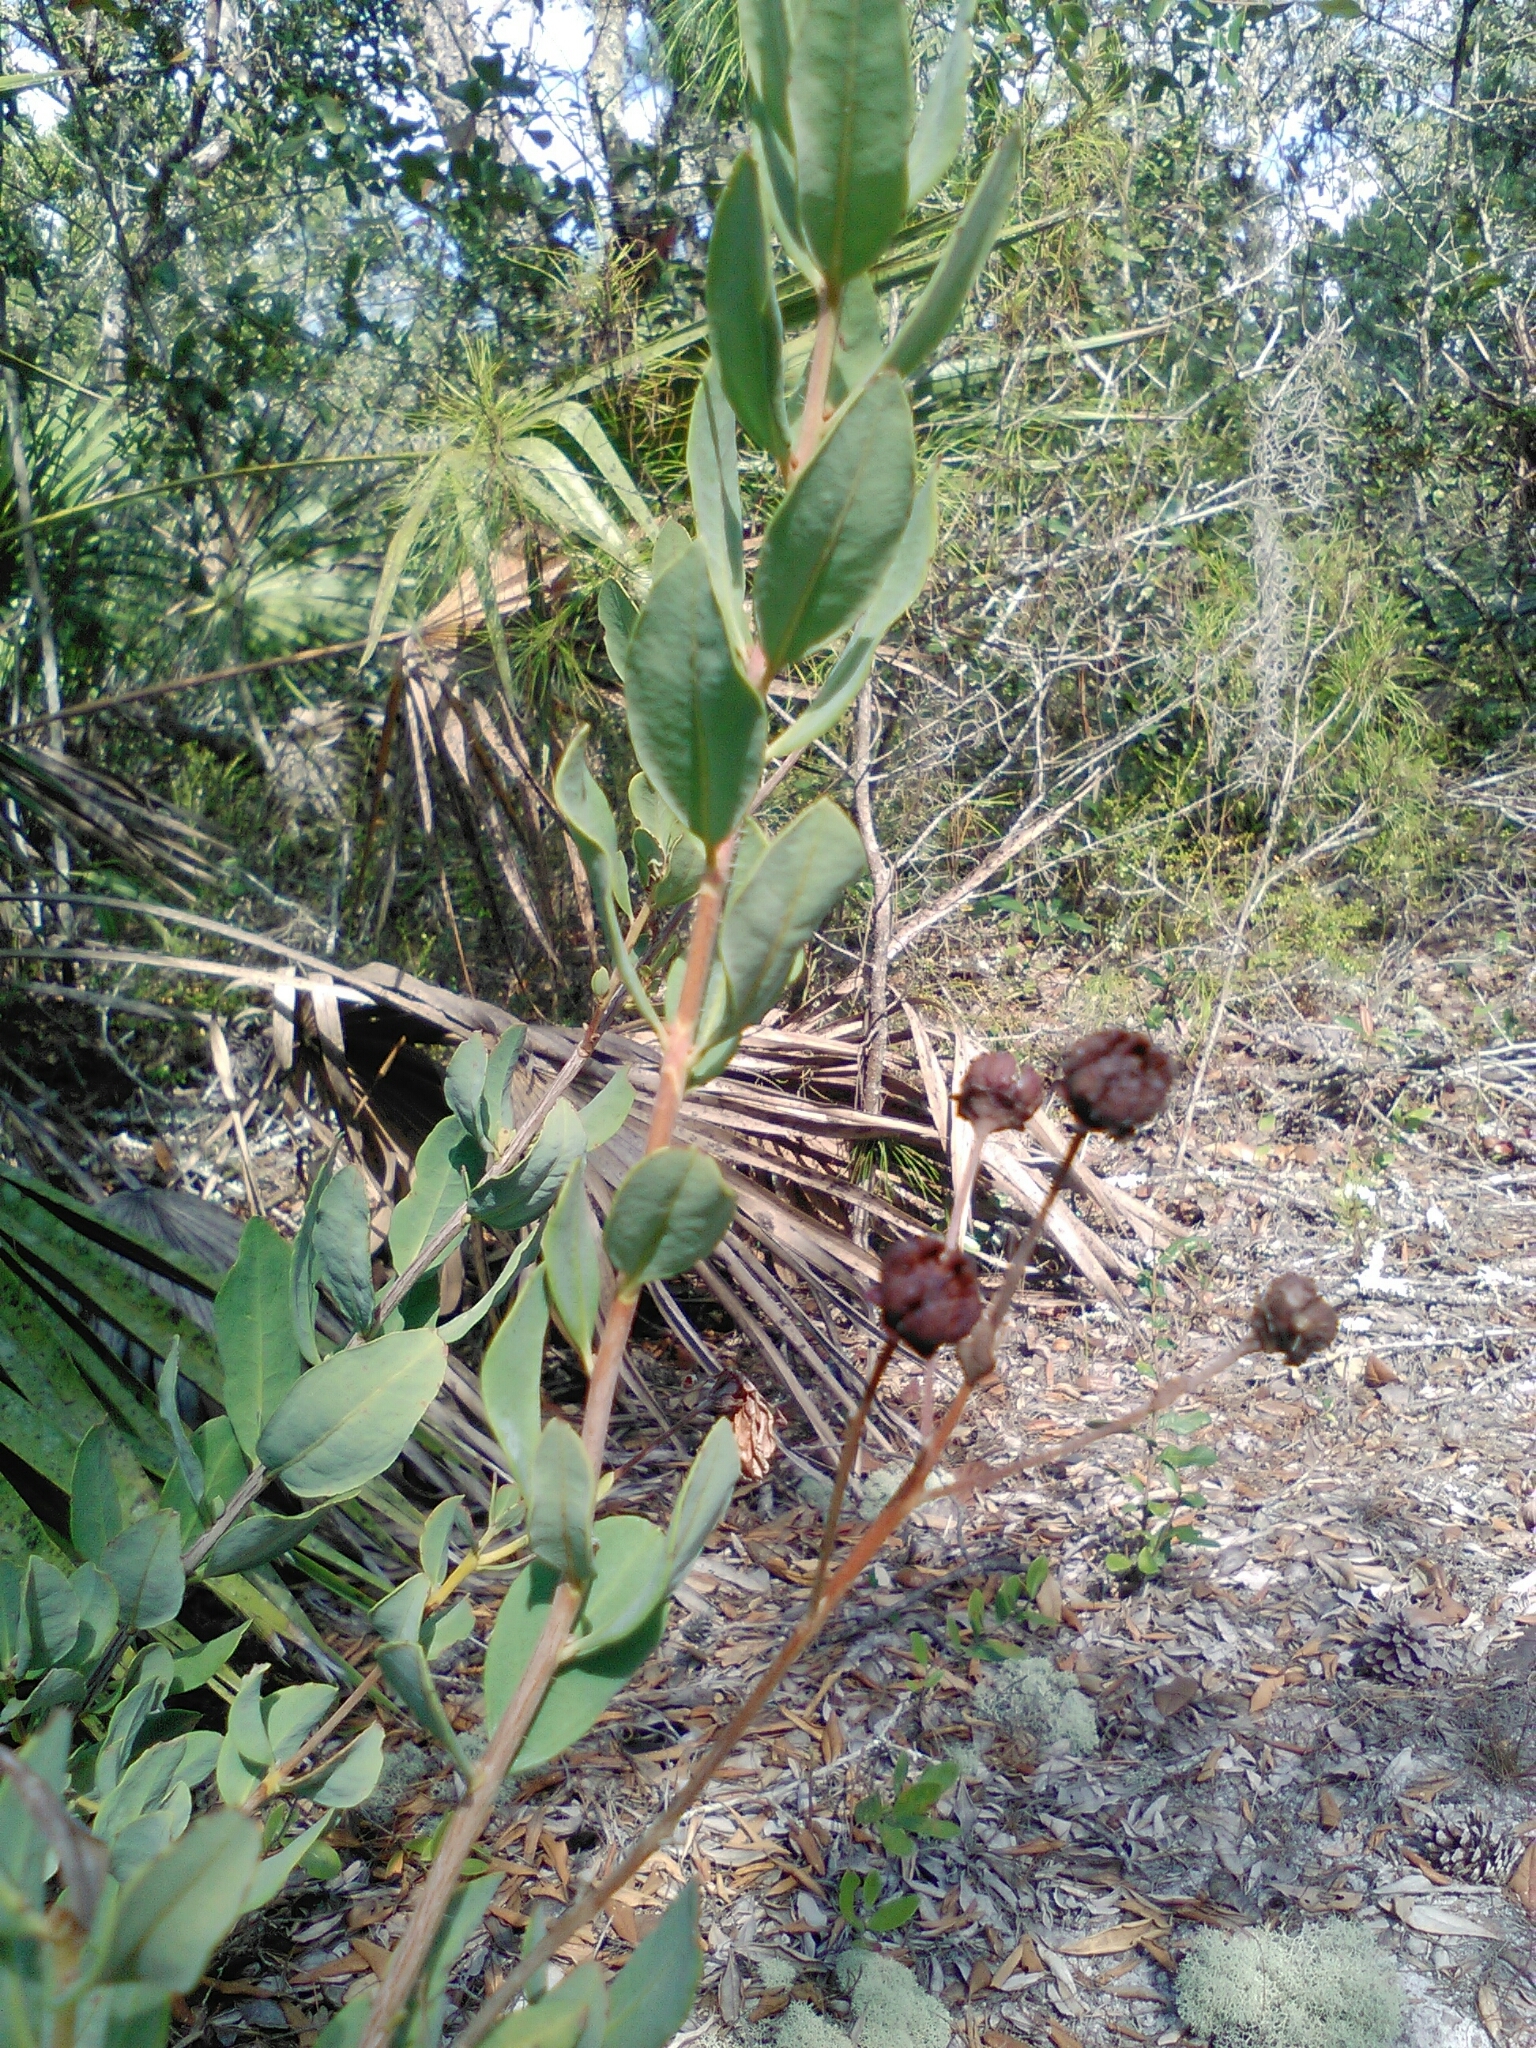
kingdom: Plantae
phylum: Tracheophyta
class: Magnoliopsida
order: Ericales
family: Ericaceae
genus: Bejaria
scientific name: Bejaria racemosa
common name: Tarflower
